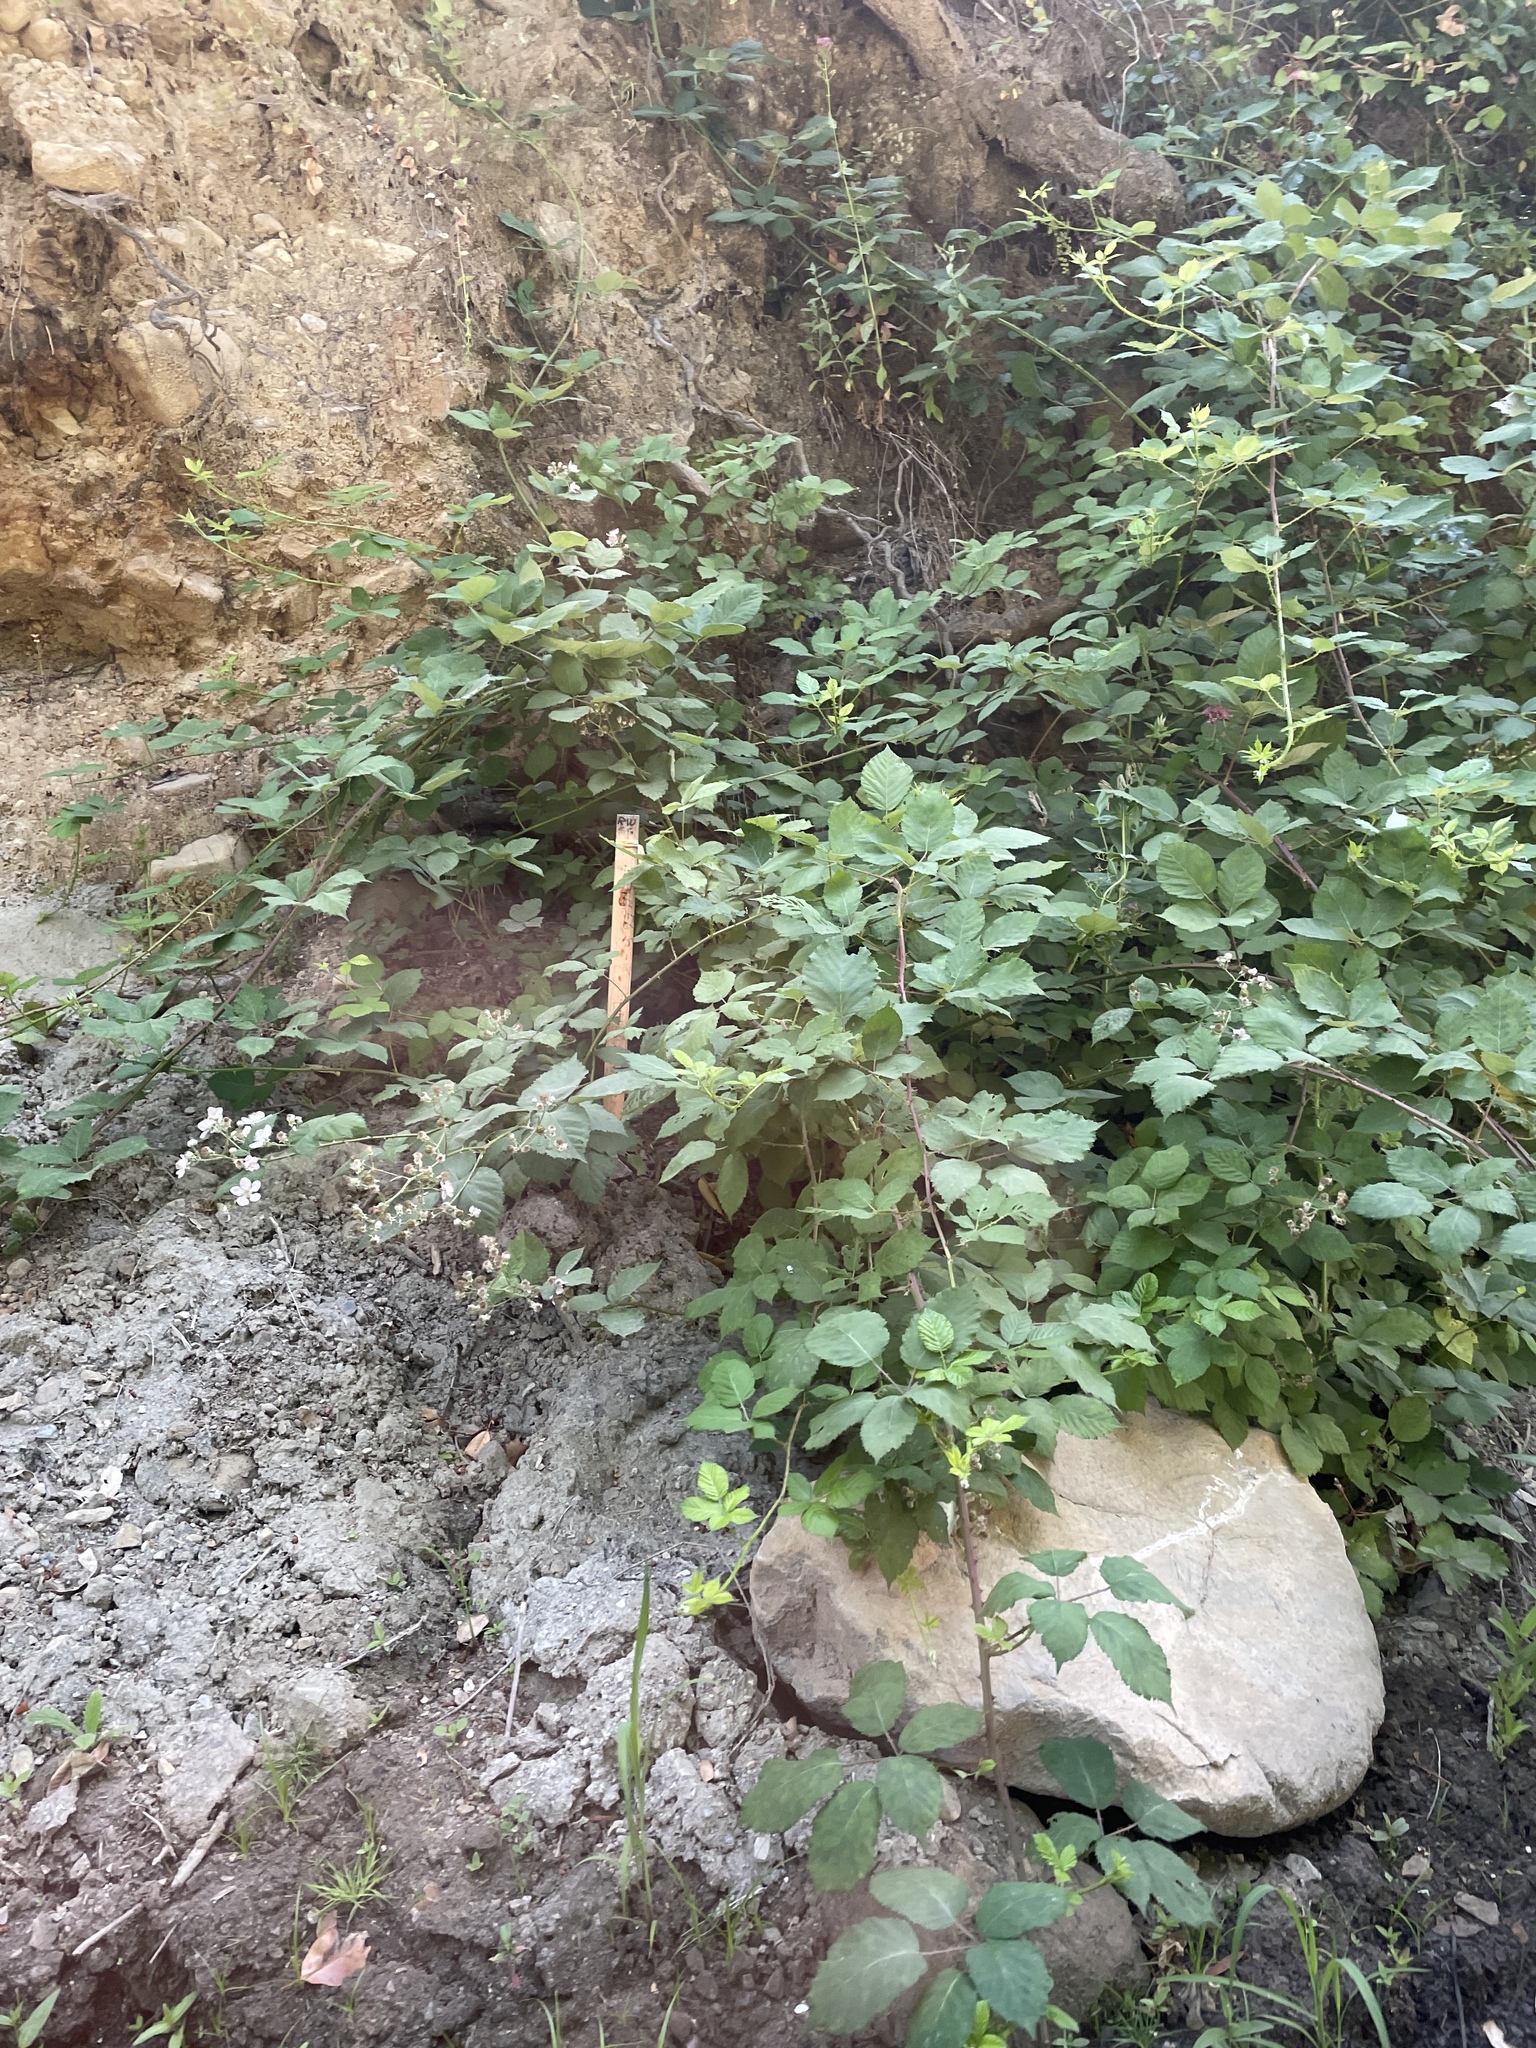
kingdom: Plantae
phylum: Tracheophyta
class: Magnoliopsida
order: Rosales
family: Rosaceae
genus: Rubus
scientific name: Rubus armeniacus
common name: Himalayan blackberry
